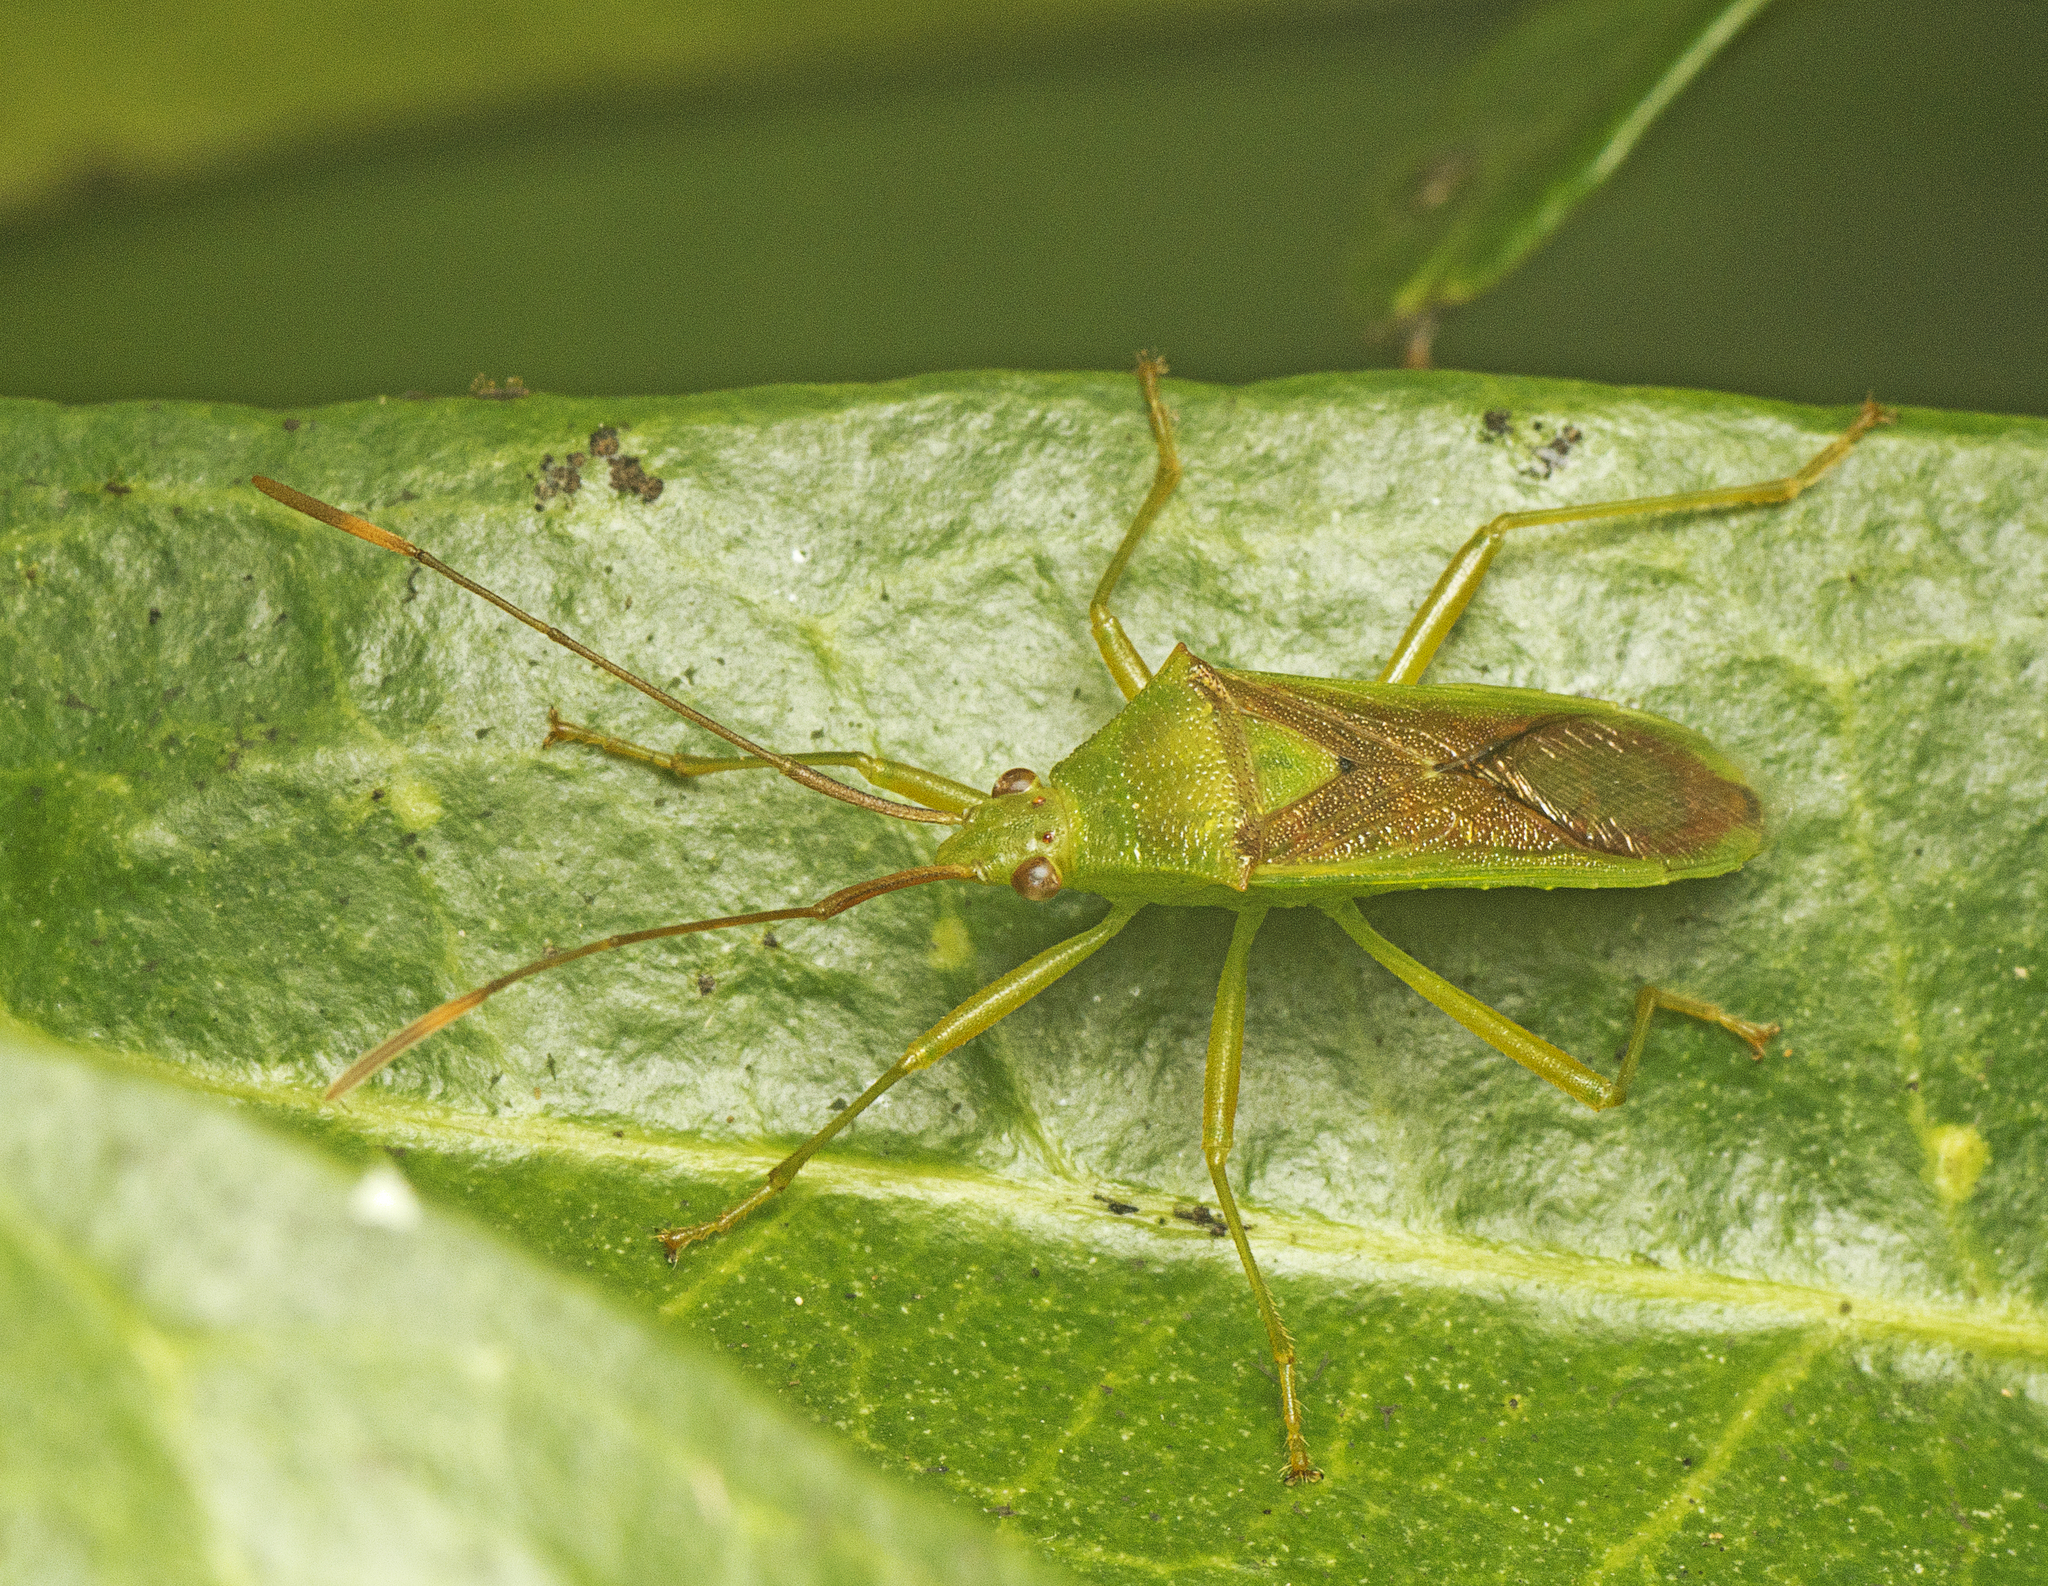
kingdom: Animalia
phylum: Arthropoda
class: Insecta
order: Hemiptera
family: Coreidae
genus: Amblypelta
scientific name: Amblypelta nitida
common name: Fruitspotting bug
